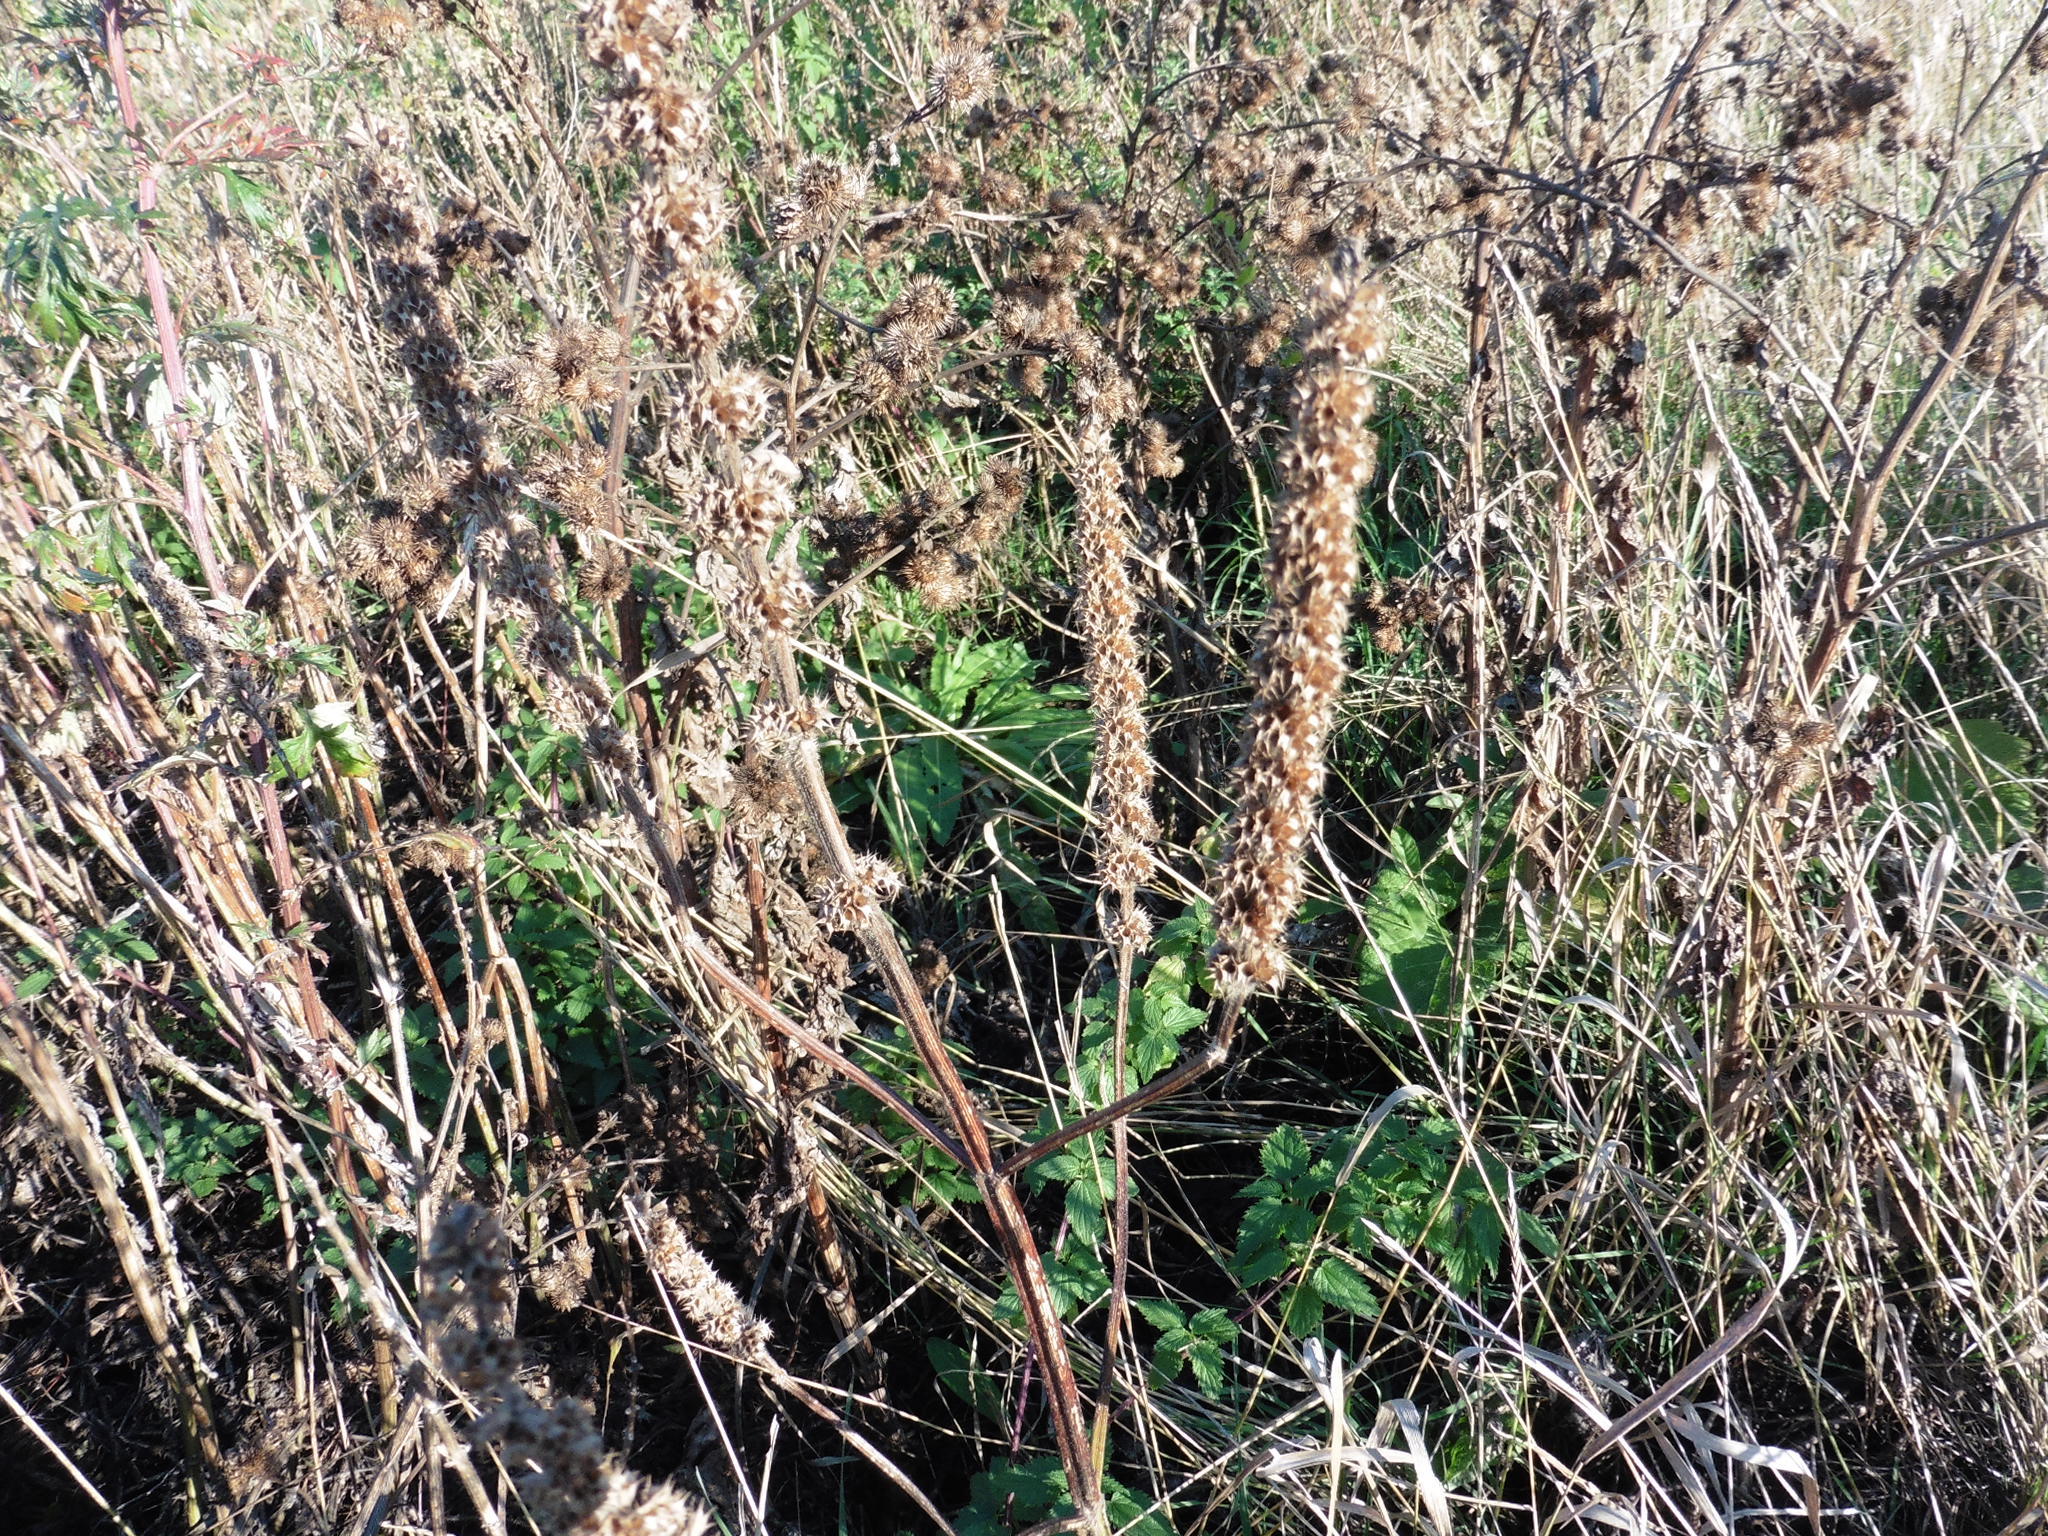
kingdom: Plantae
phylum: Tracheophyta
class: Magnoliopsida
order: Lamiales
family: Lamiaceae
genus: Leonurus
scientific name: Leonurus quinquelobatus
